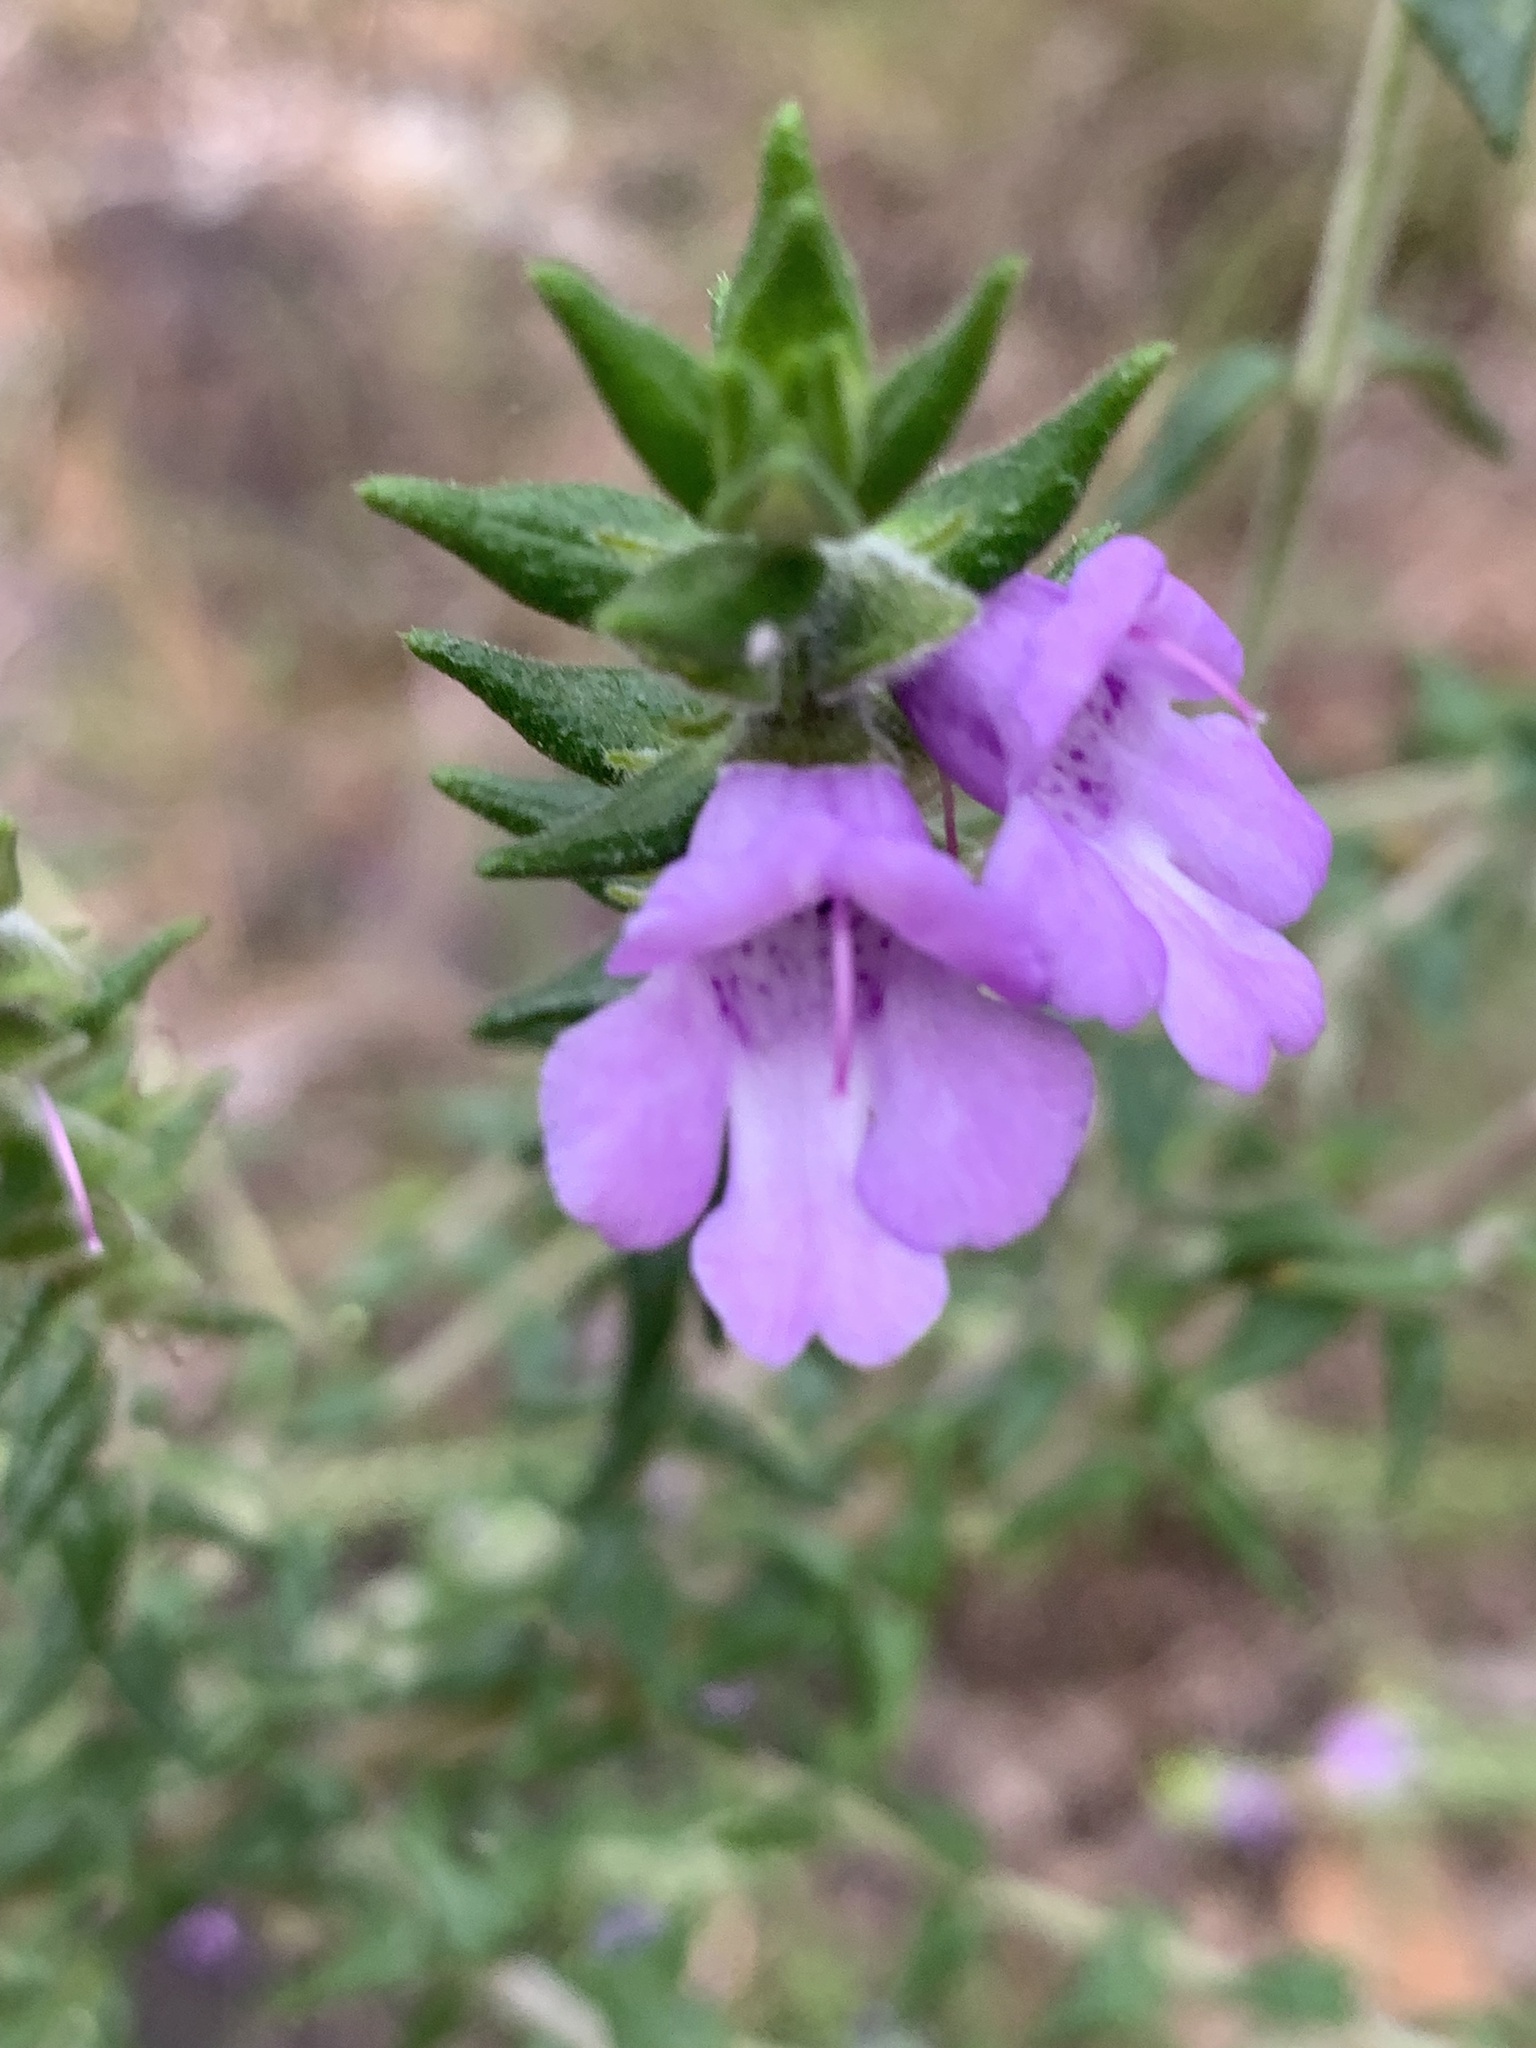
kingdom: Plantae
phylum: Tracheophyta
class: Magnoliopsida
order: Lamiales
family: Lamiaceae
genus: Prostanthera
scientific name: Prostanthera granitica
